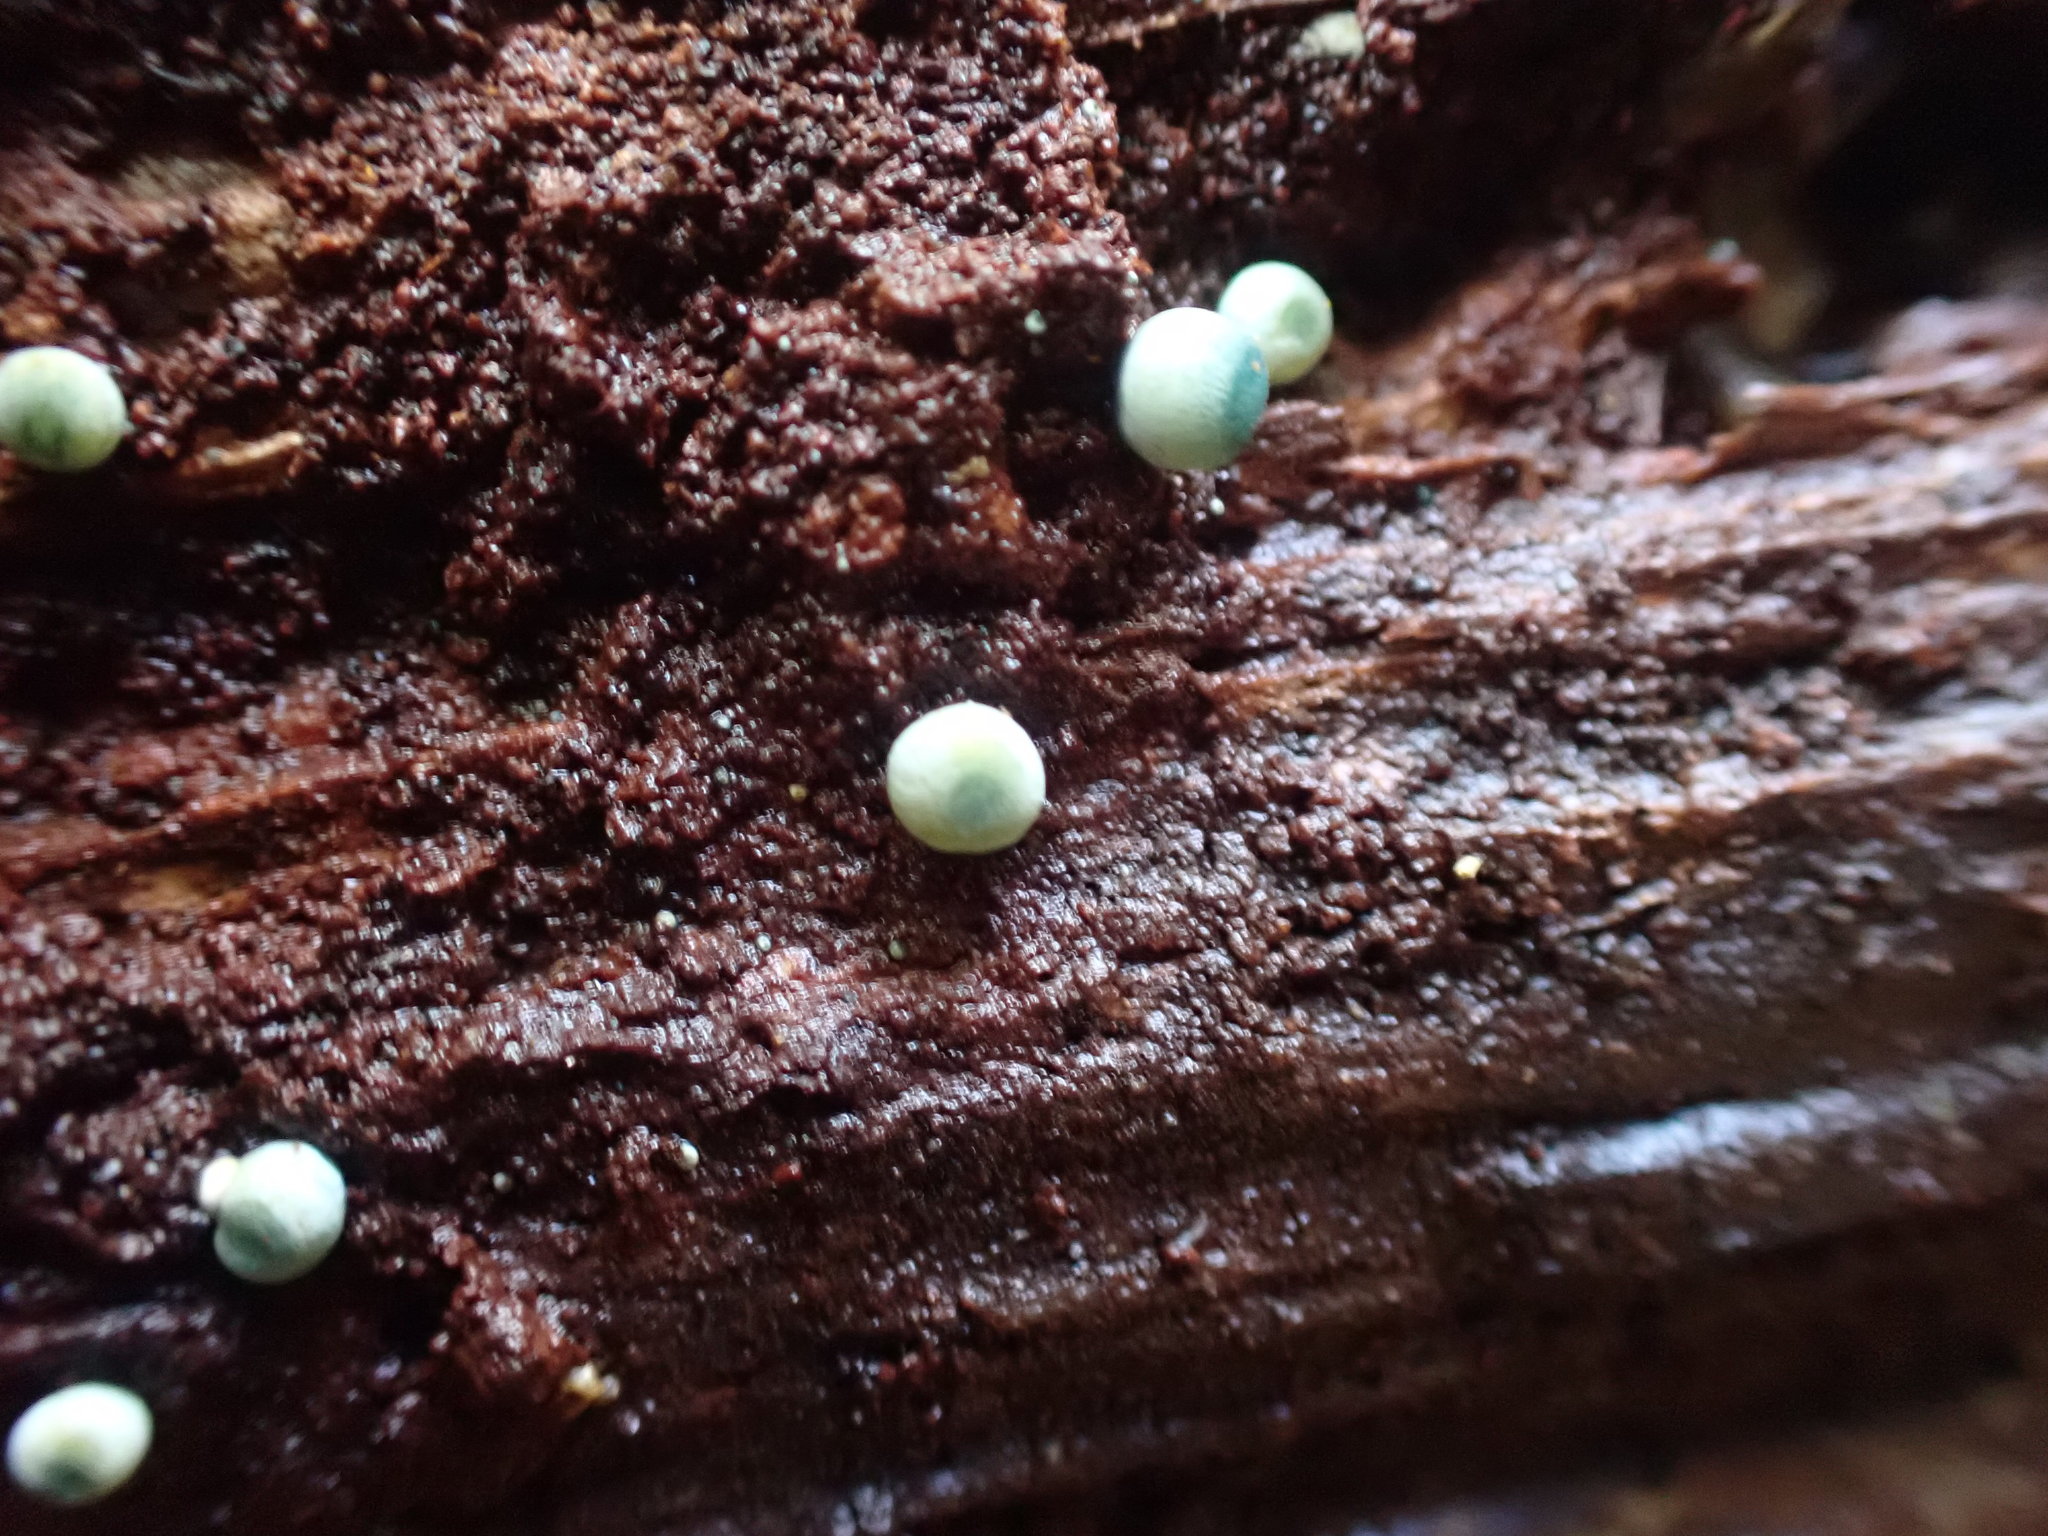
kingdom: Fungi
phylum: Basidiomycota
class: Agaricomycetes
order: Agaricales
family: Mycenaceae
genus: Mycena
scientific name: Mycena interrupta
